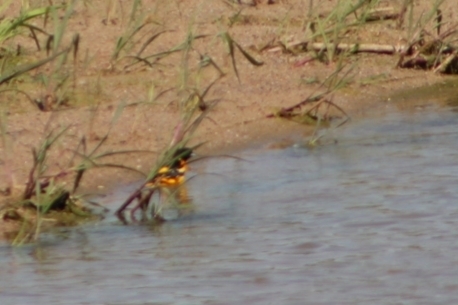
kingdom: Animalia
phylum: Chordata
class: Aves
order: Passeriformes
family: Icteridae
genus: Icterus
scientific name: Icterus galbula
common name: Baltimore oriole
